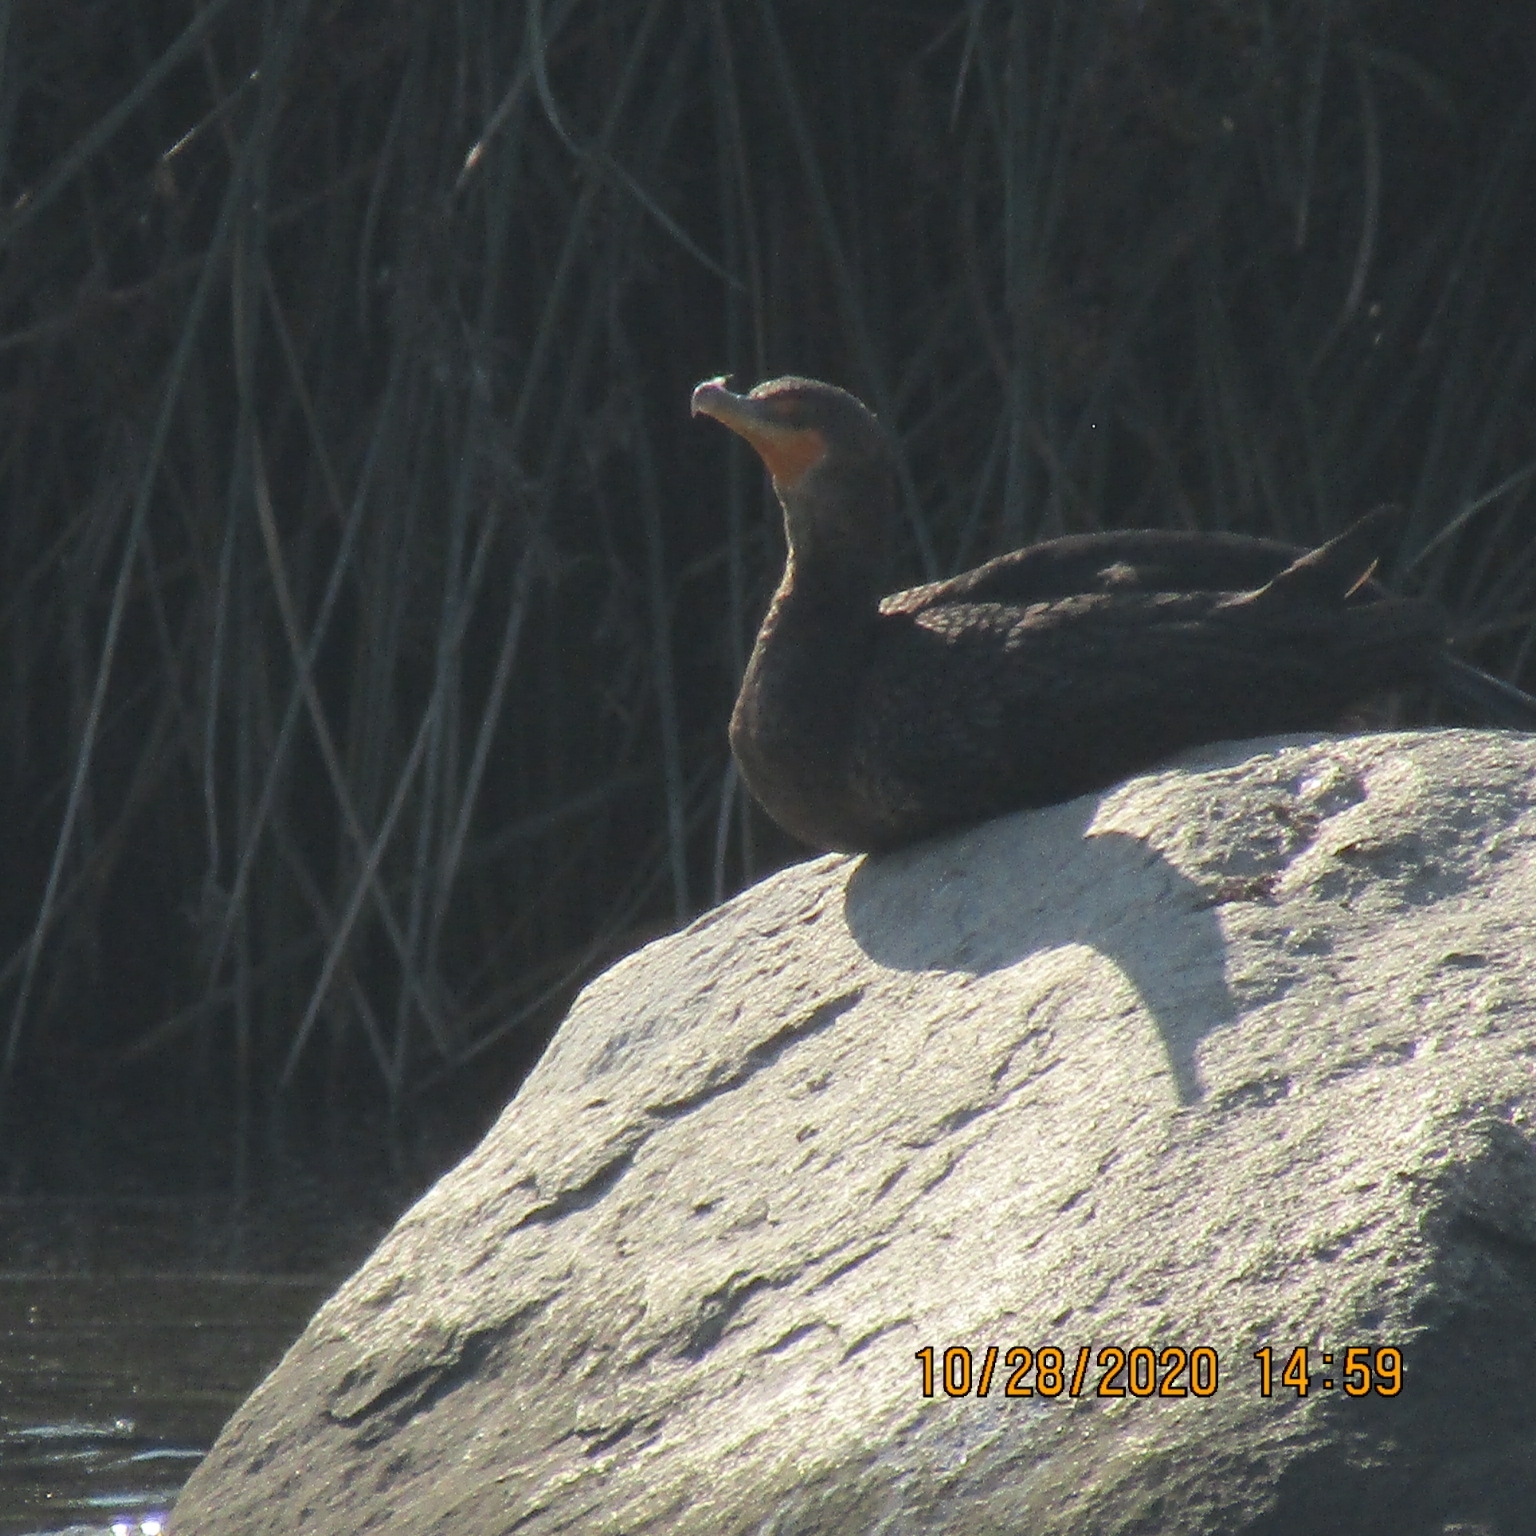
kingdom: Animalia
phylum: Chordata
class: Aves
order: Suliformes
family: Phalacrocoracidae
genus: Phalacrocorax
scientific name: Phalacrocorax auritus
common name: Double-crested cormorant
